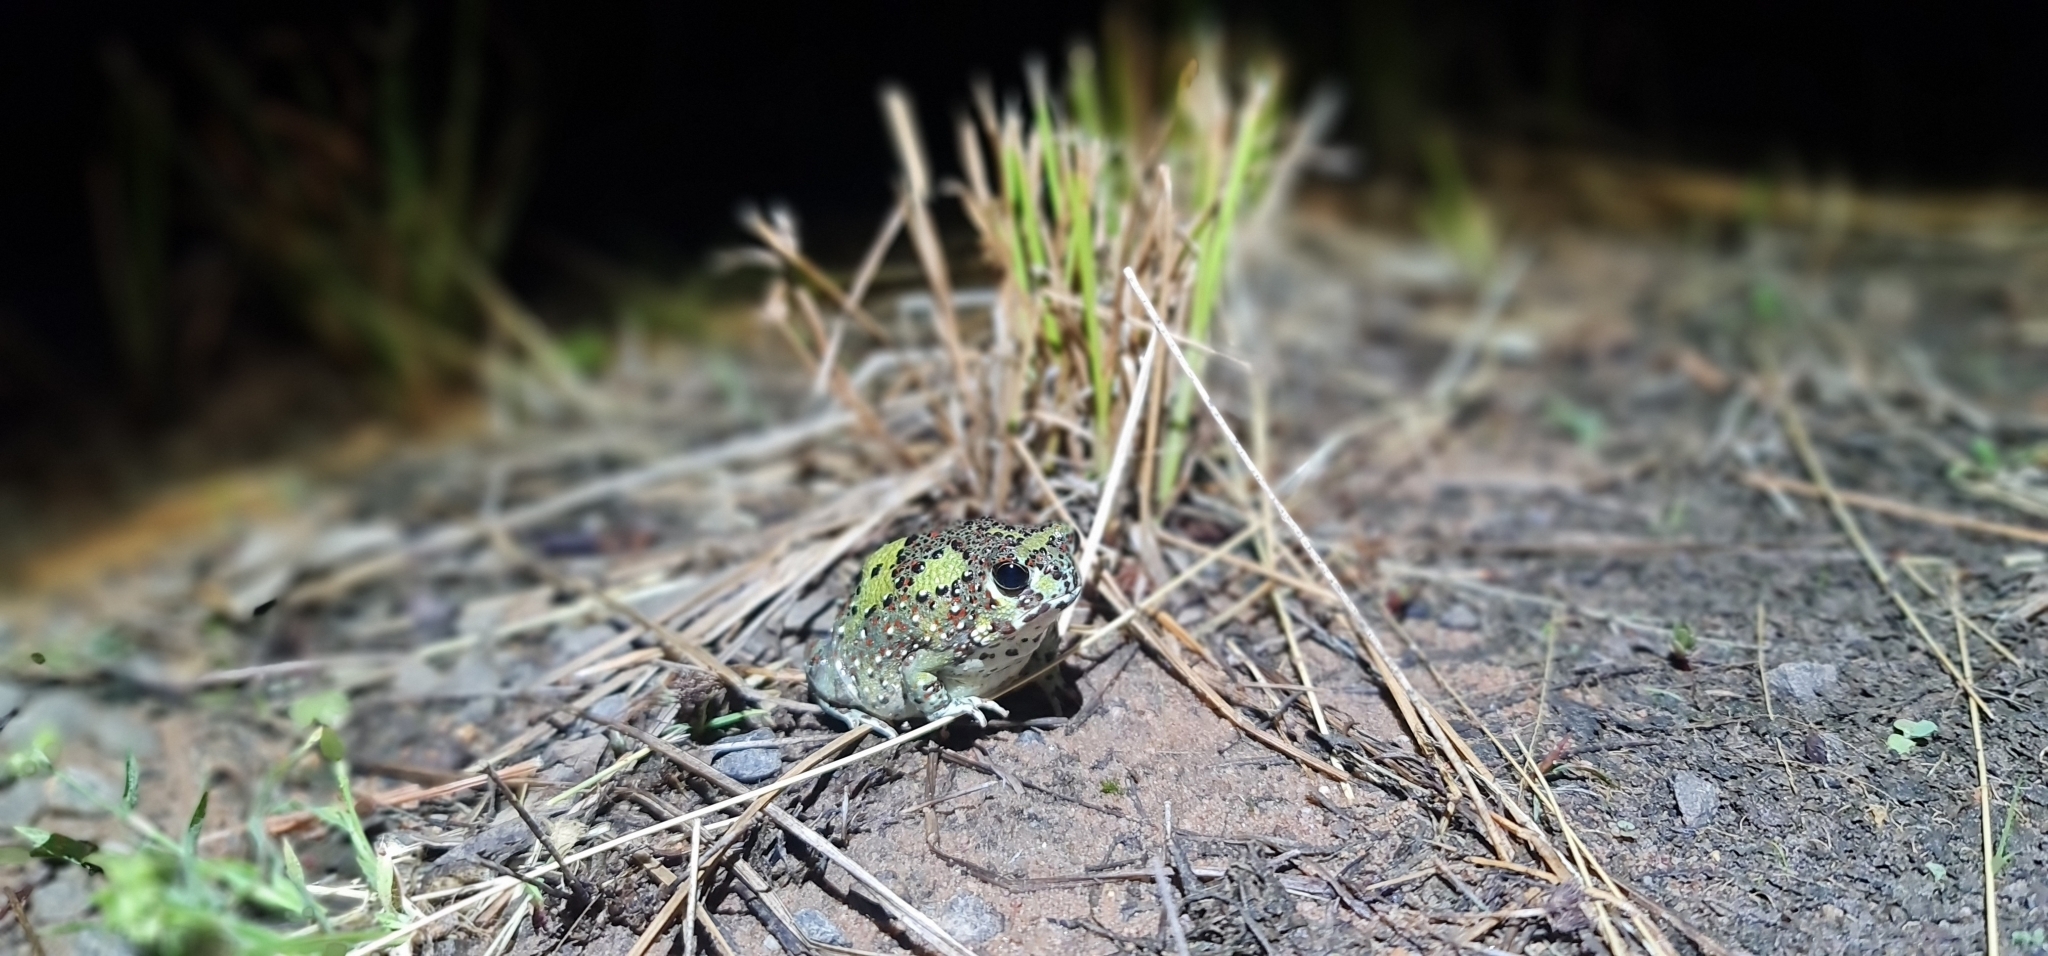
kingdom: Animalia
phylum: Chordata
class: Amphibia
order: Anura
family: Limnodynastidae
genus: Notaden
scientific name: Notaden bennettii
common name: Crucifix frog
